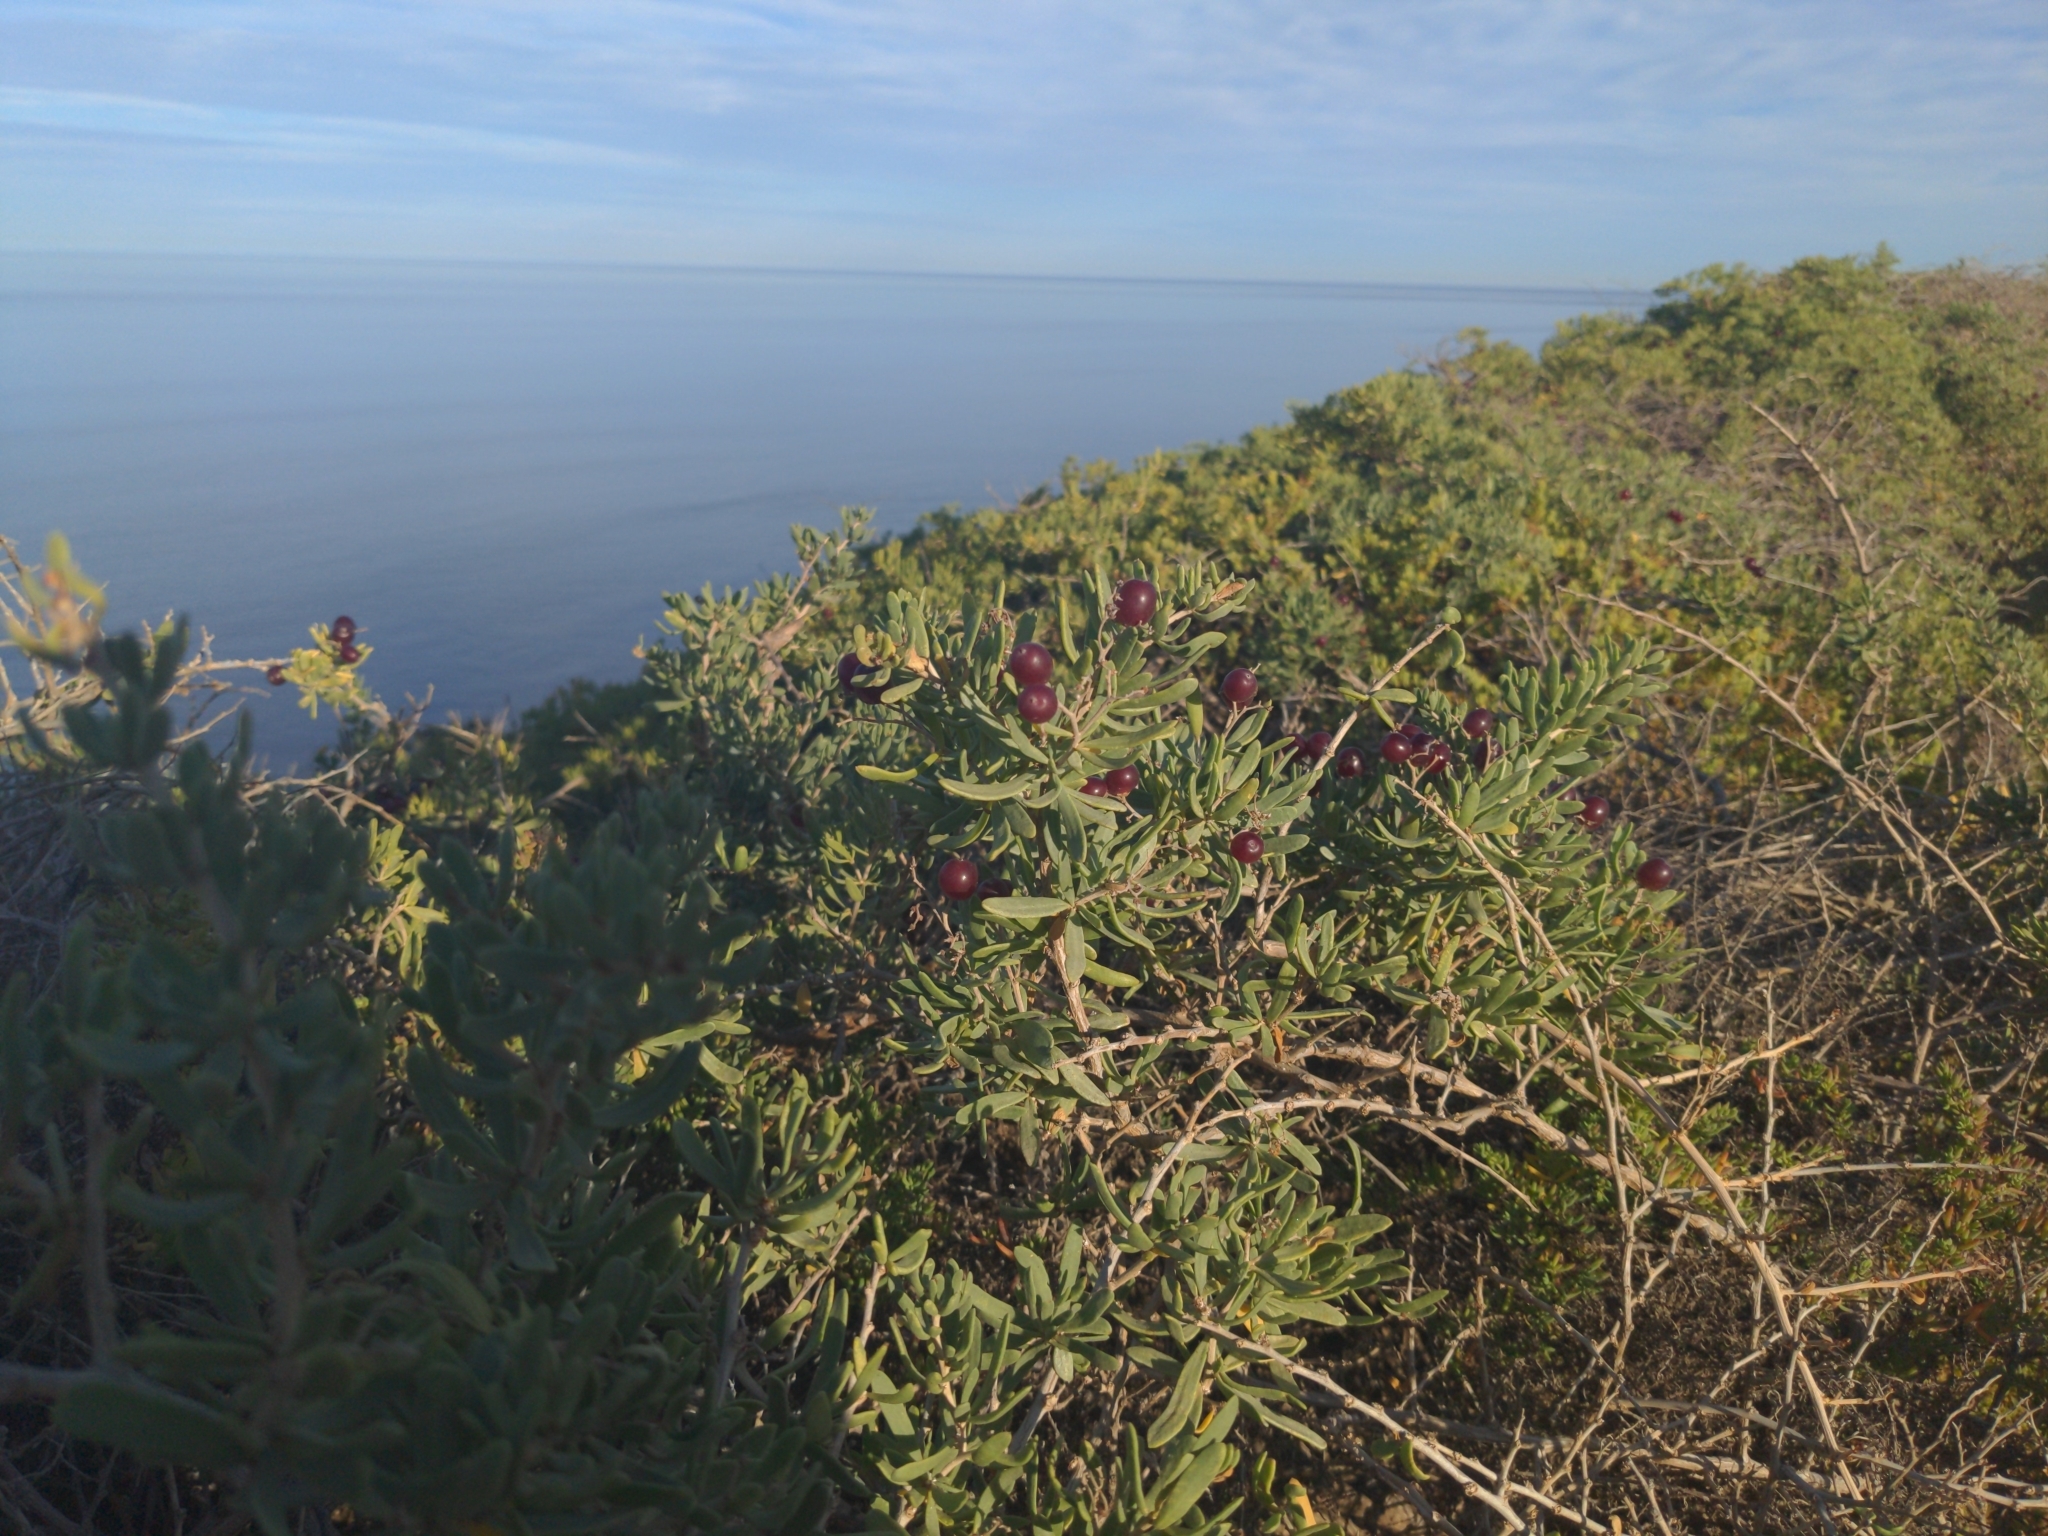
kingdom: Plantae
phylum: Tracheophyta
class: Magnoliopsida
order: Sapindales
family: Nitrariaceae
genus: Nitraria
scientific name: Nitraria billardierei
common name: Dillonbush
